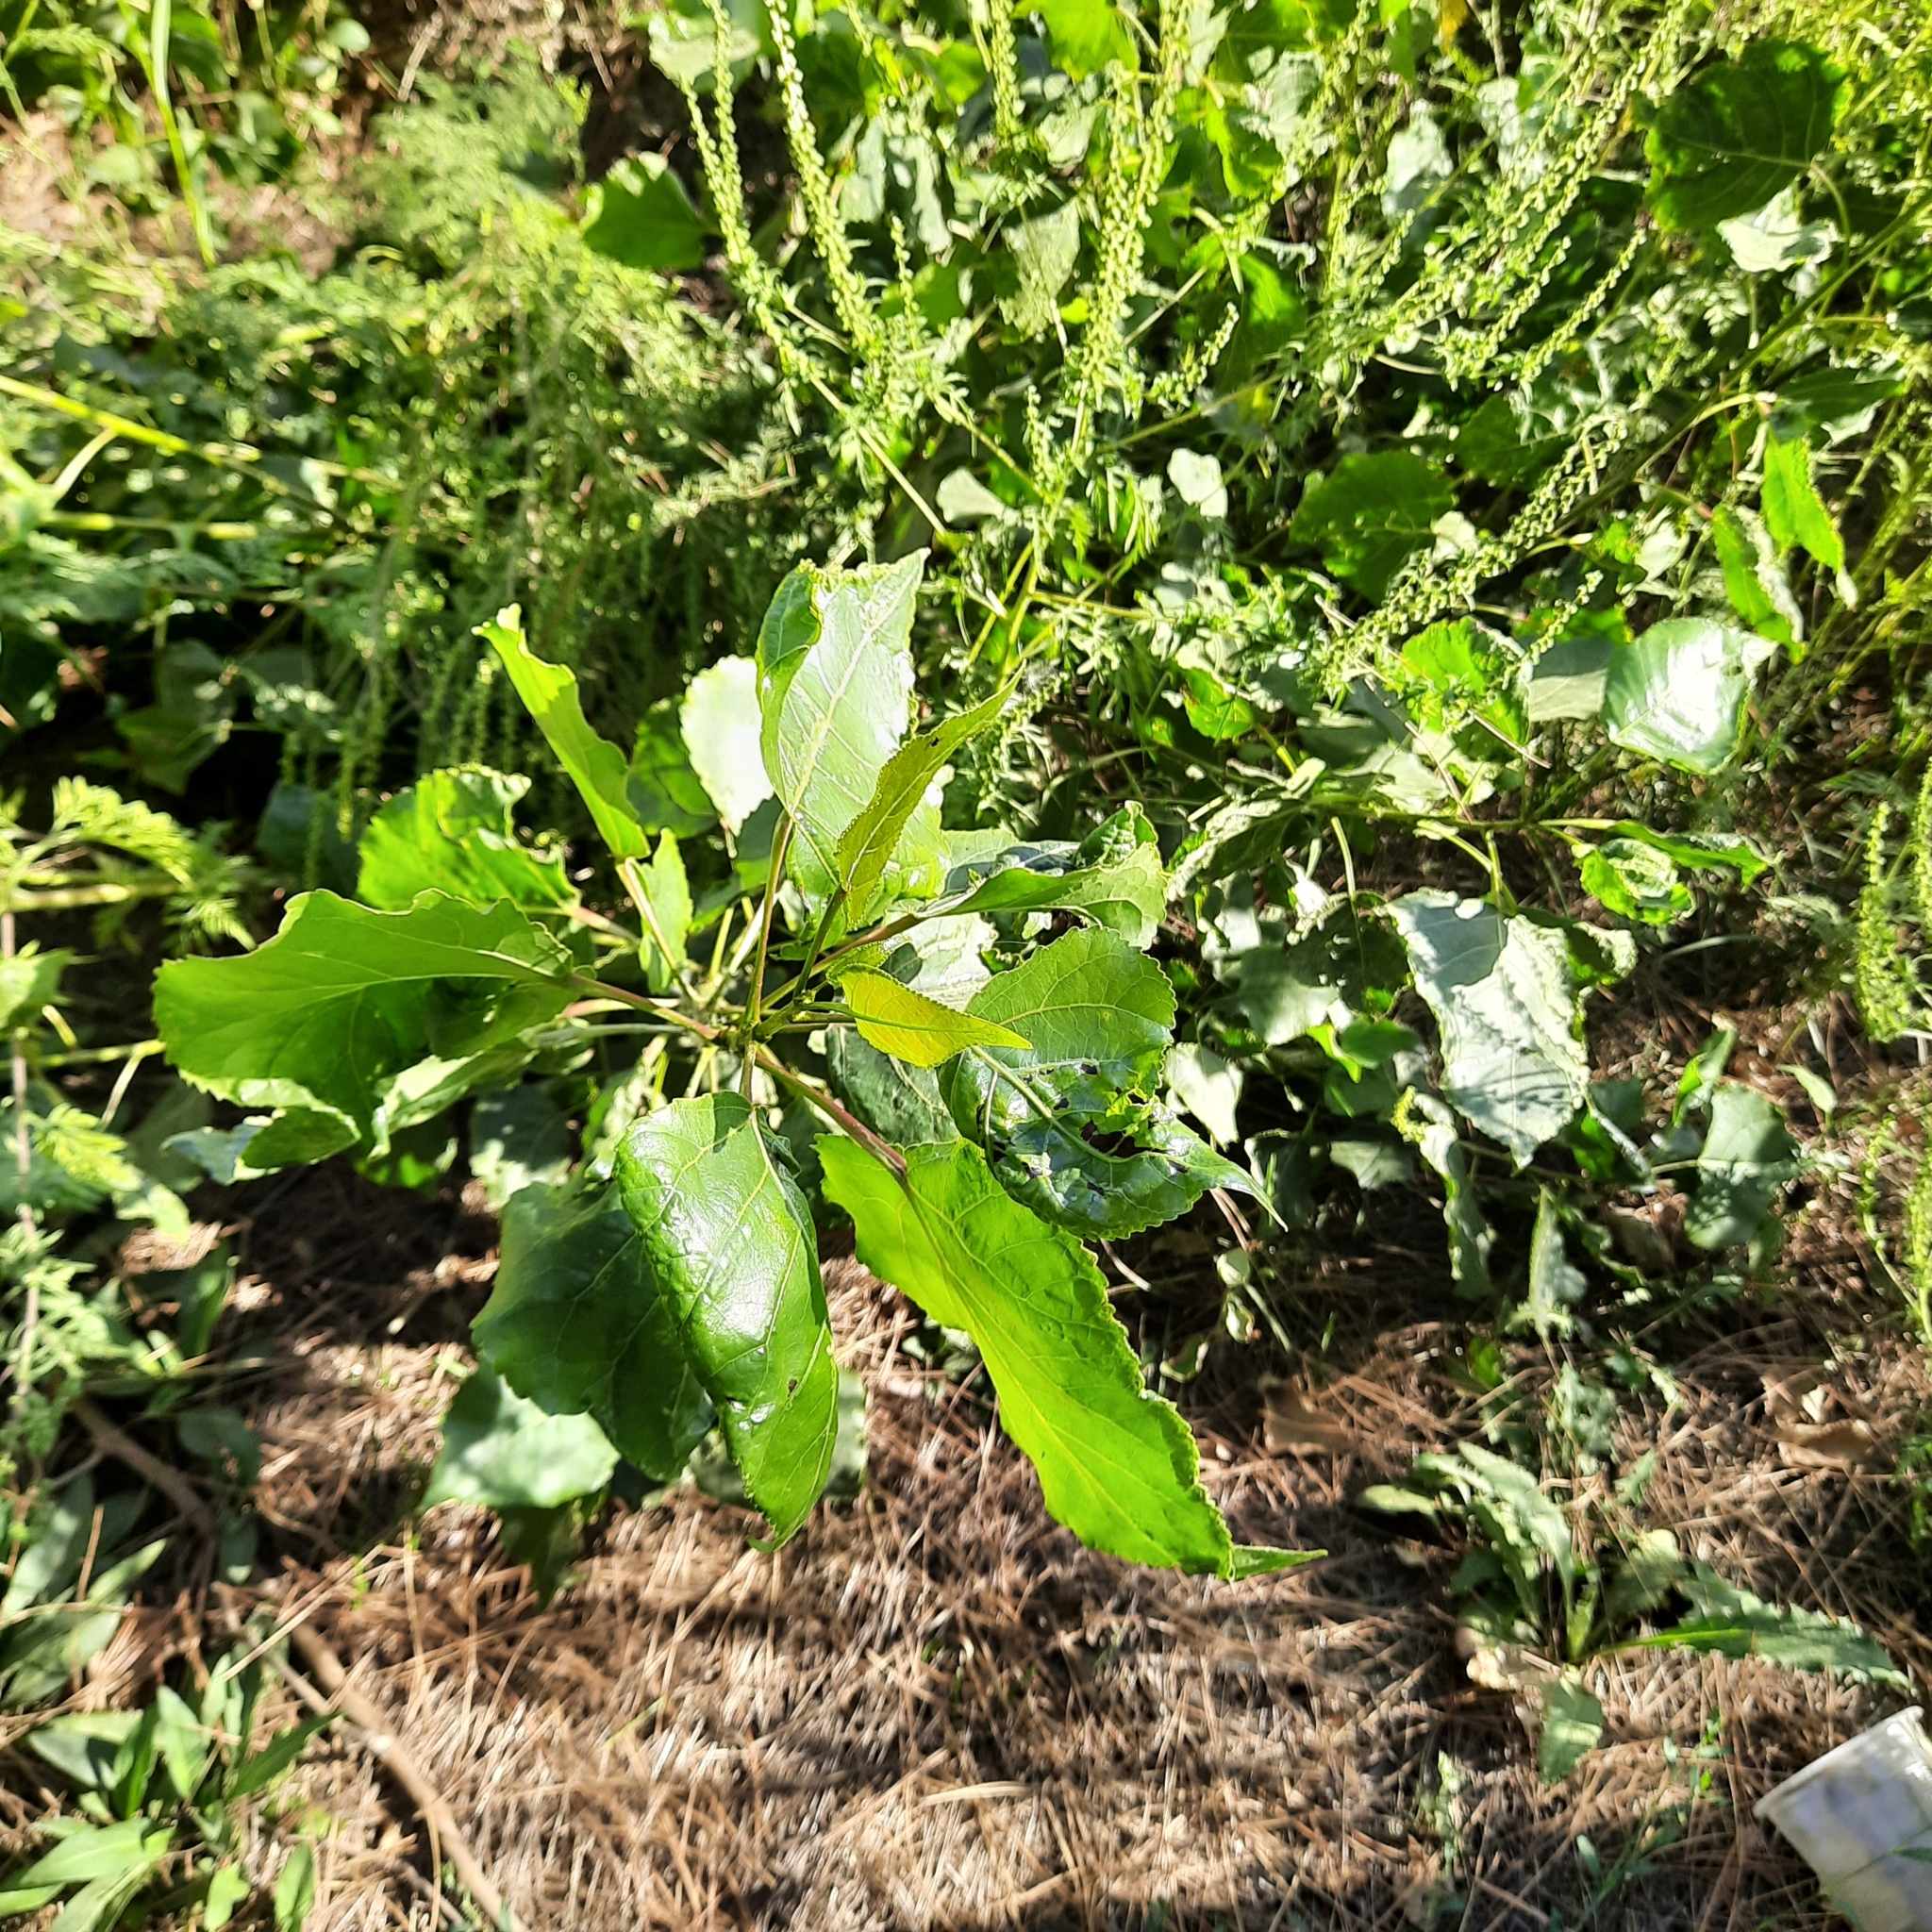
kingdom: Plantae
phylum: Tracheophyta
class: Magnoliopsida
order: Malpighiales
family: Salicaceae
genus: Populus
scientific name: Populus nigra
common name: Black poplar
